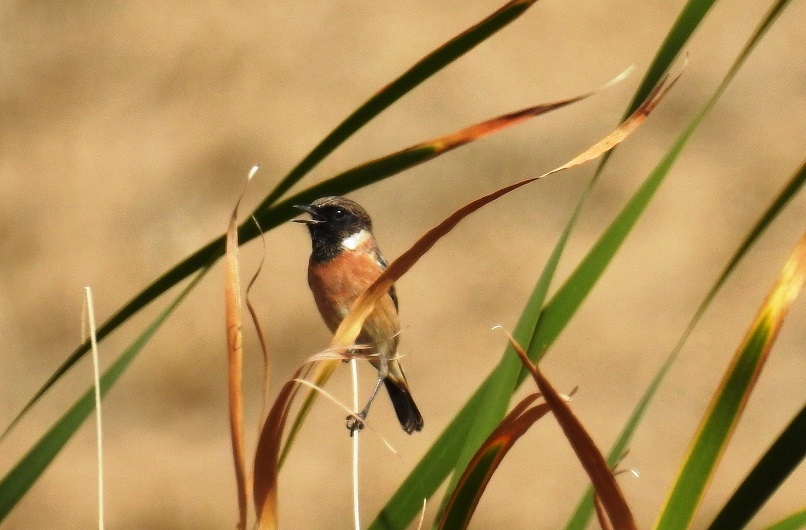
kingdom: Animalia
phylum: Chordata
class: Aves
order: Passeriformes
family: Muscicapidae
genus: Saxicola
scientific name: Saxicola rubicola
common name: European stonechat
